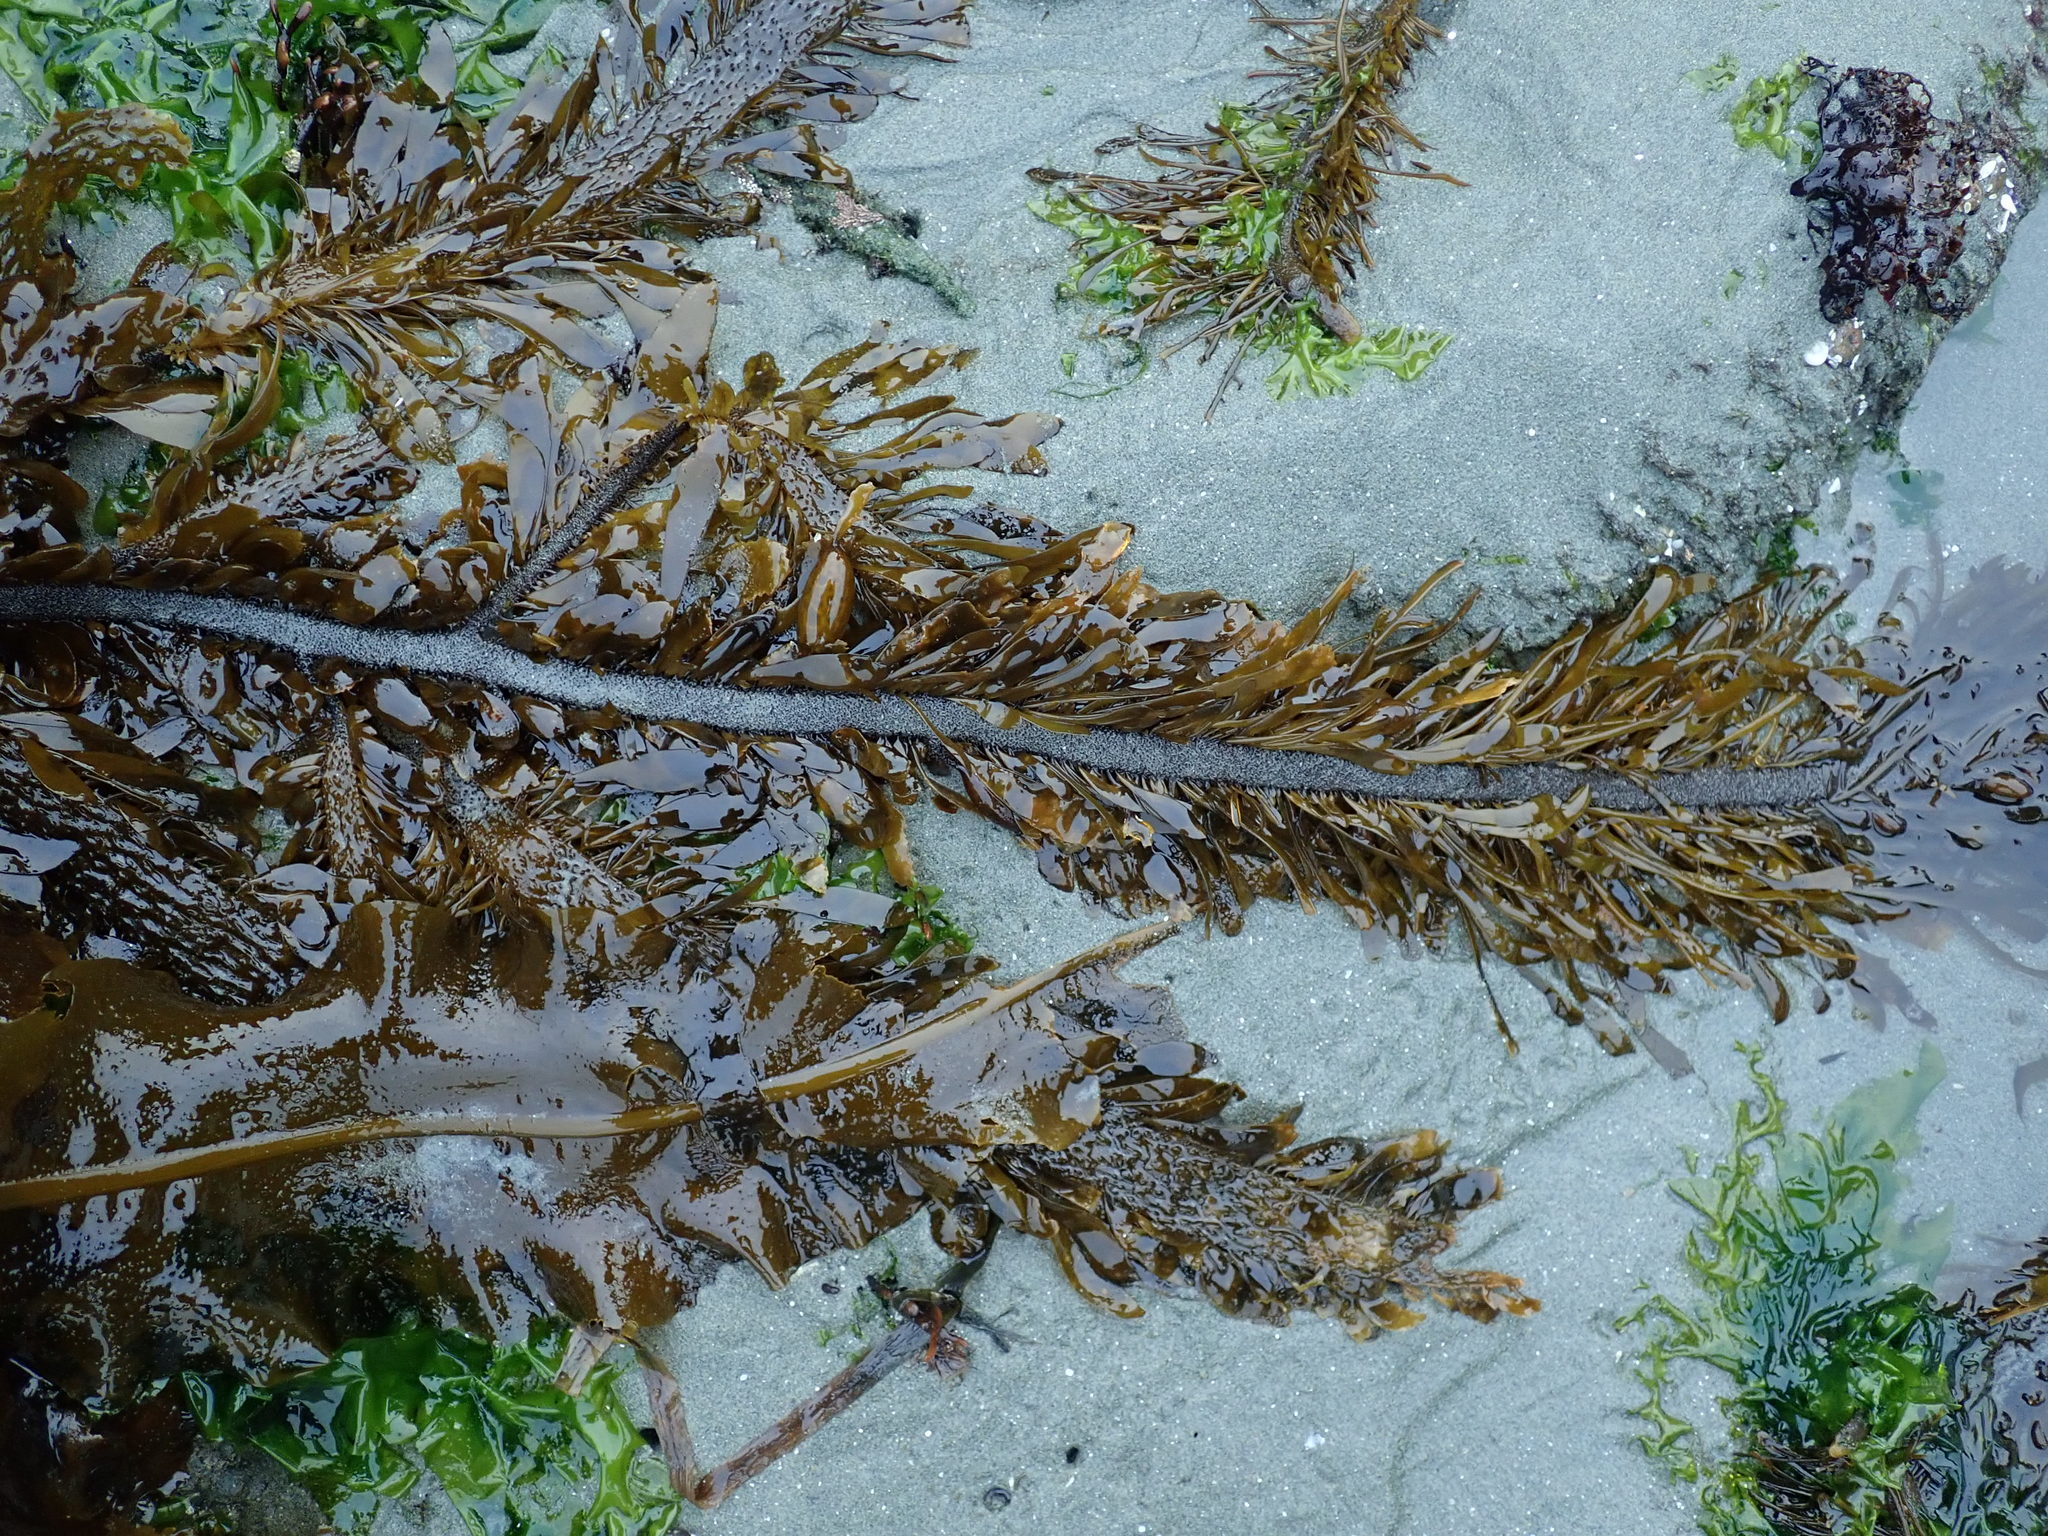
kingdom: Chromista
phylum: Ochrophyta
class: Phaeophyceae
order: Laminariales
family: Lessoniaceae
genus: Egregia
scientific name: Egregia menziesii
